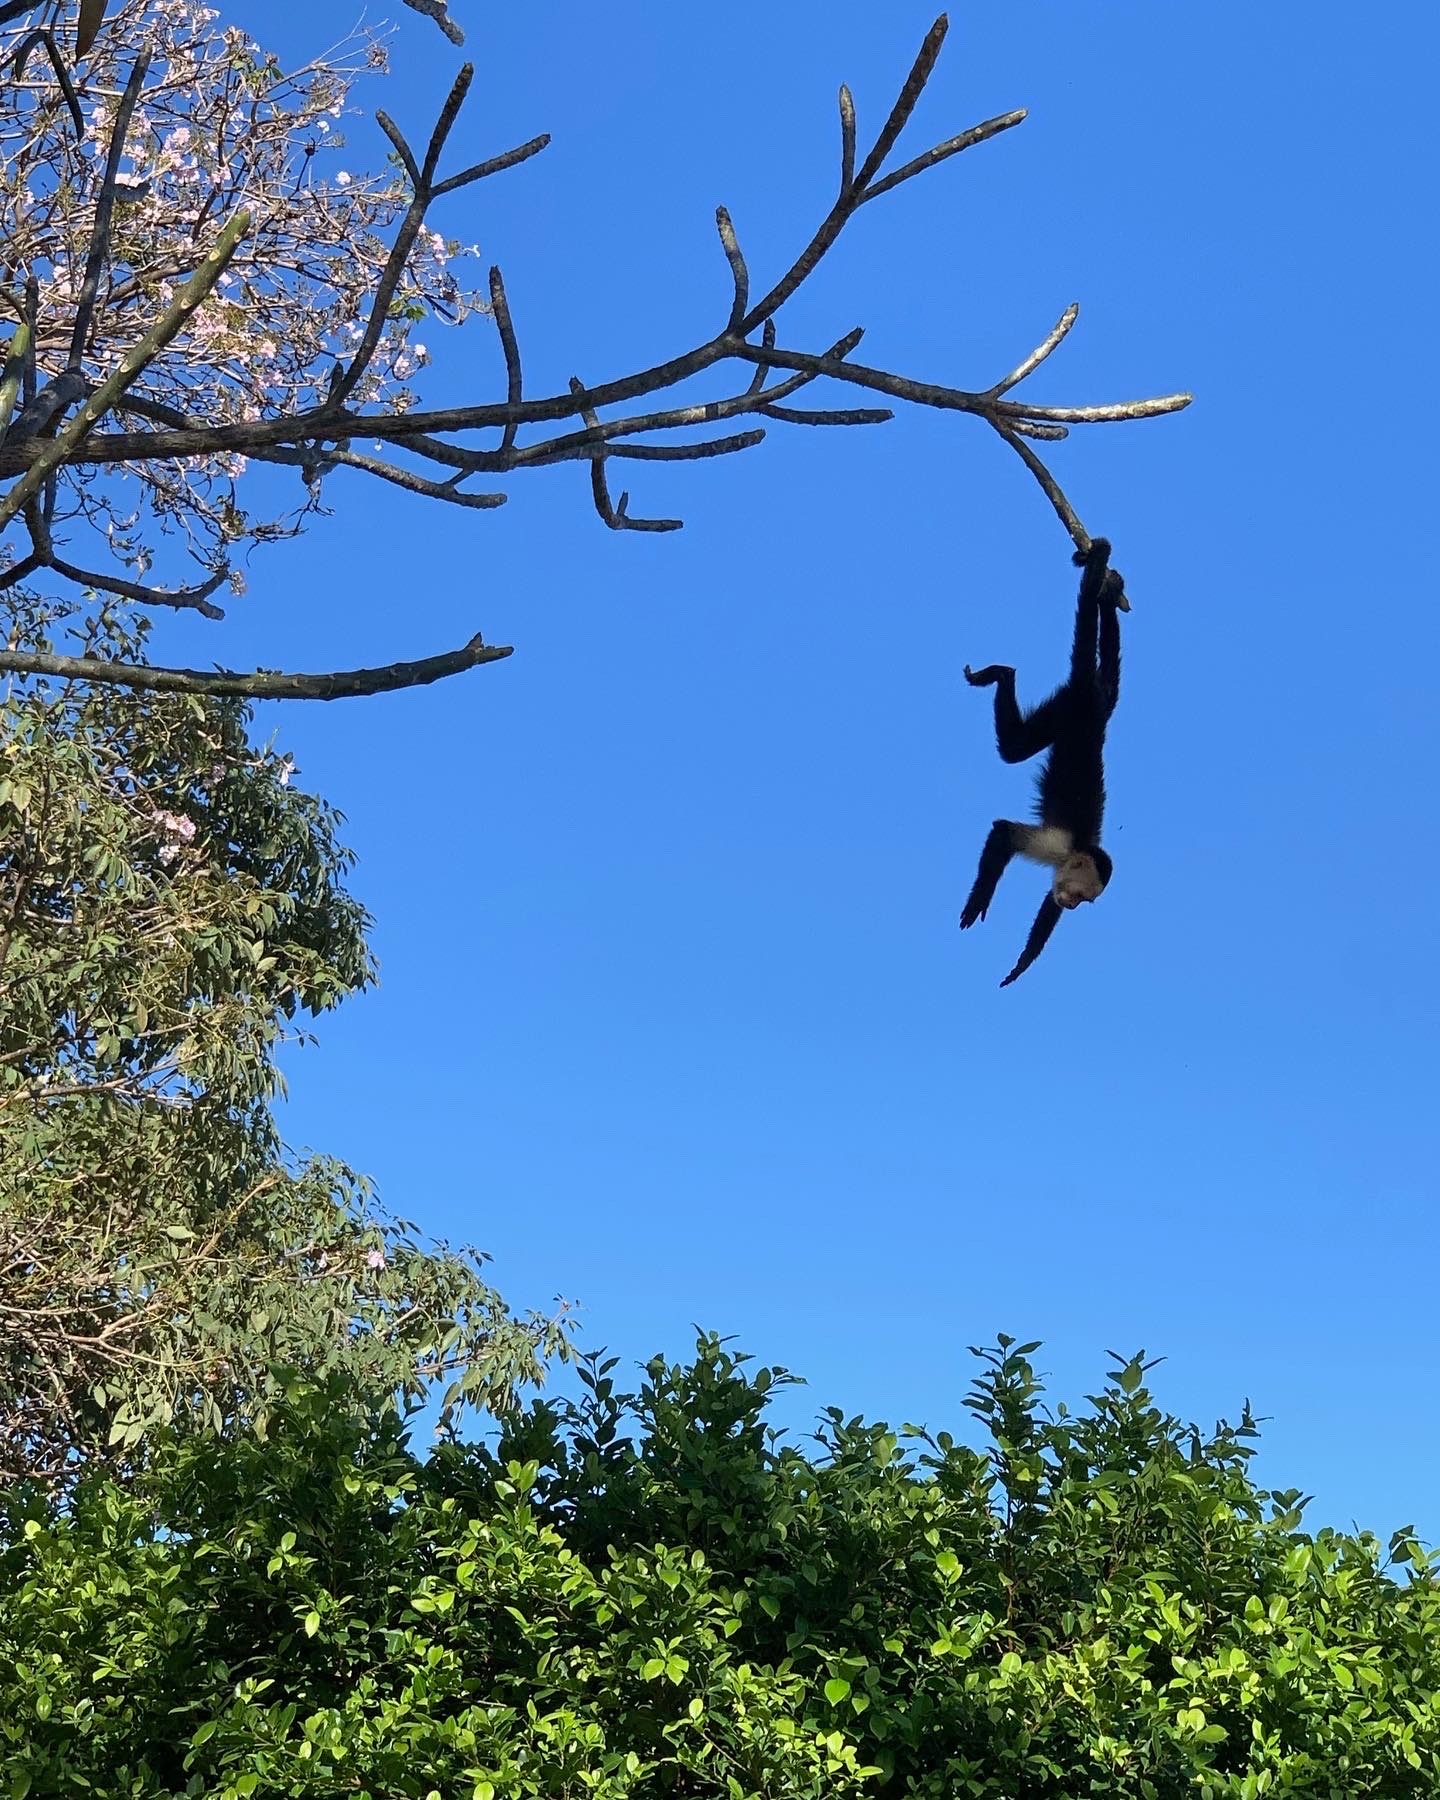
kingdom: Animalia
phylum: Chordata
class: Mammalia
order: Primates
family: Cebidae
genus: Cebus
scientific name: Cebus imitator
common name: Panamanian white-faced capuchin
